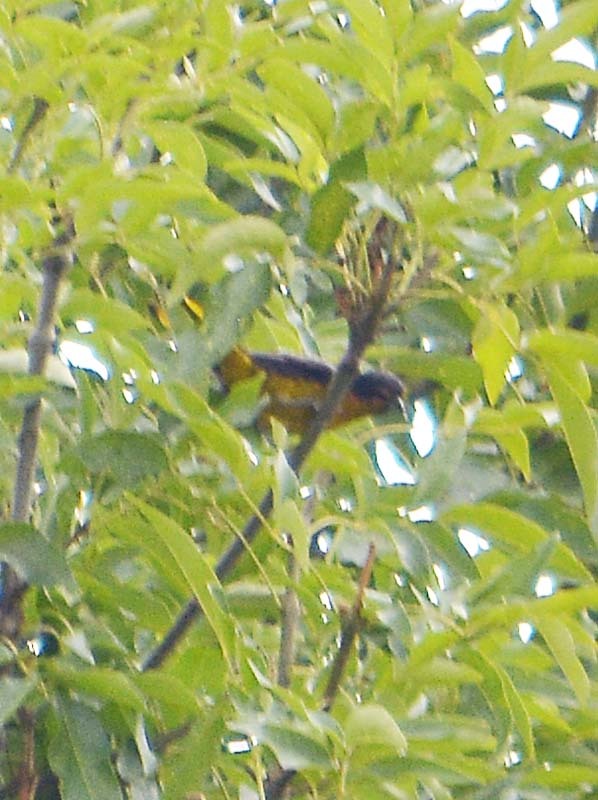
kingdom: Animalia
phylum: Chordata
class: Aves
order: Passeriformes
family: Icteridae
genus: Icterus
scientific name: Icterus abeillei
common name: Black-backed oriole
